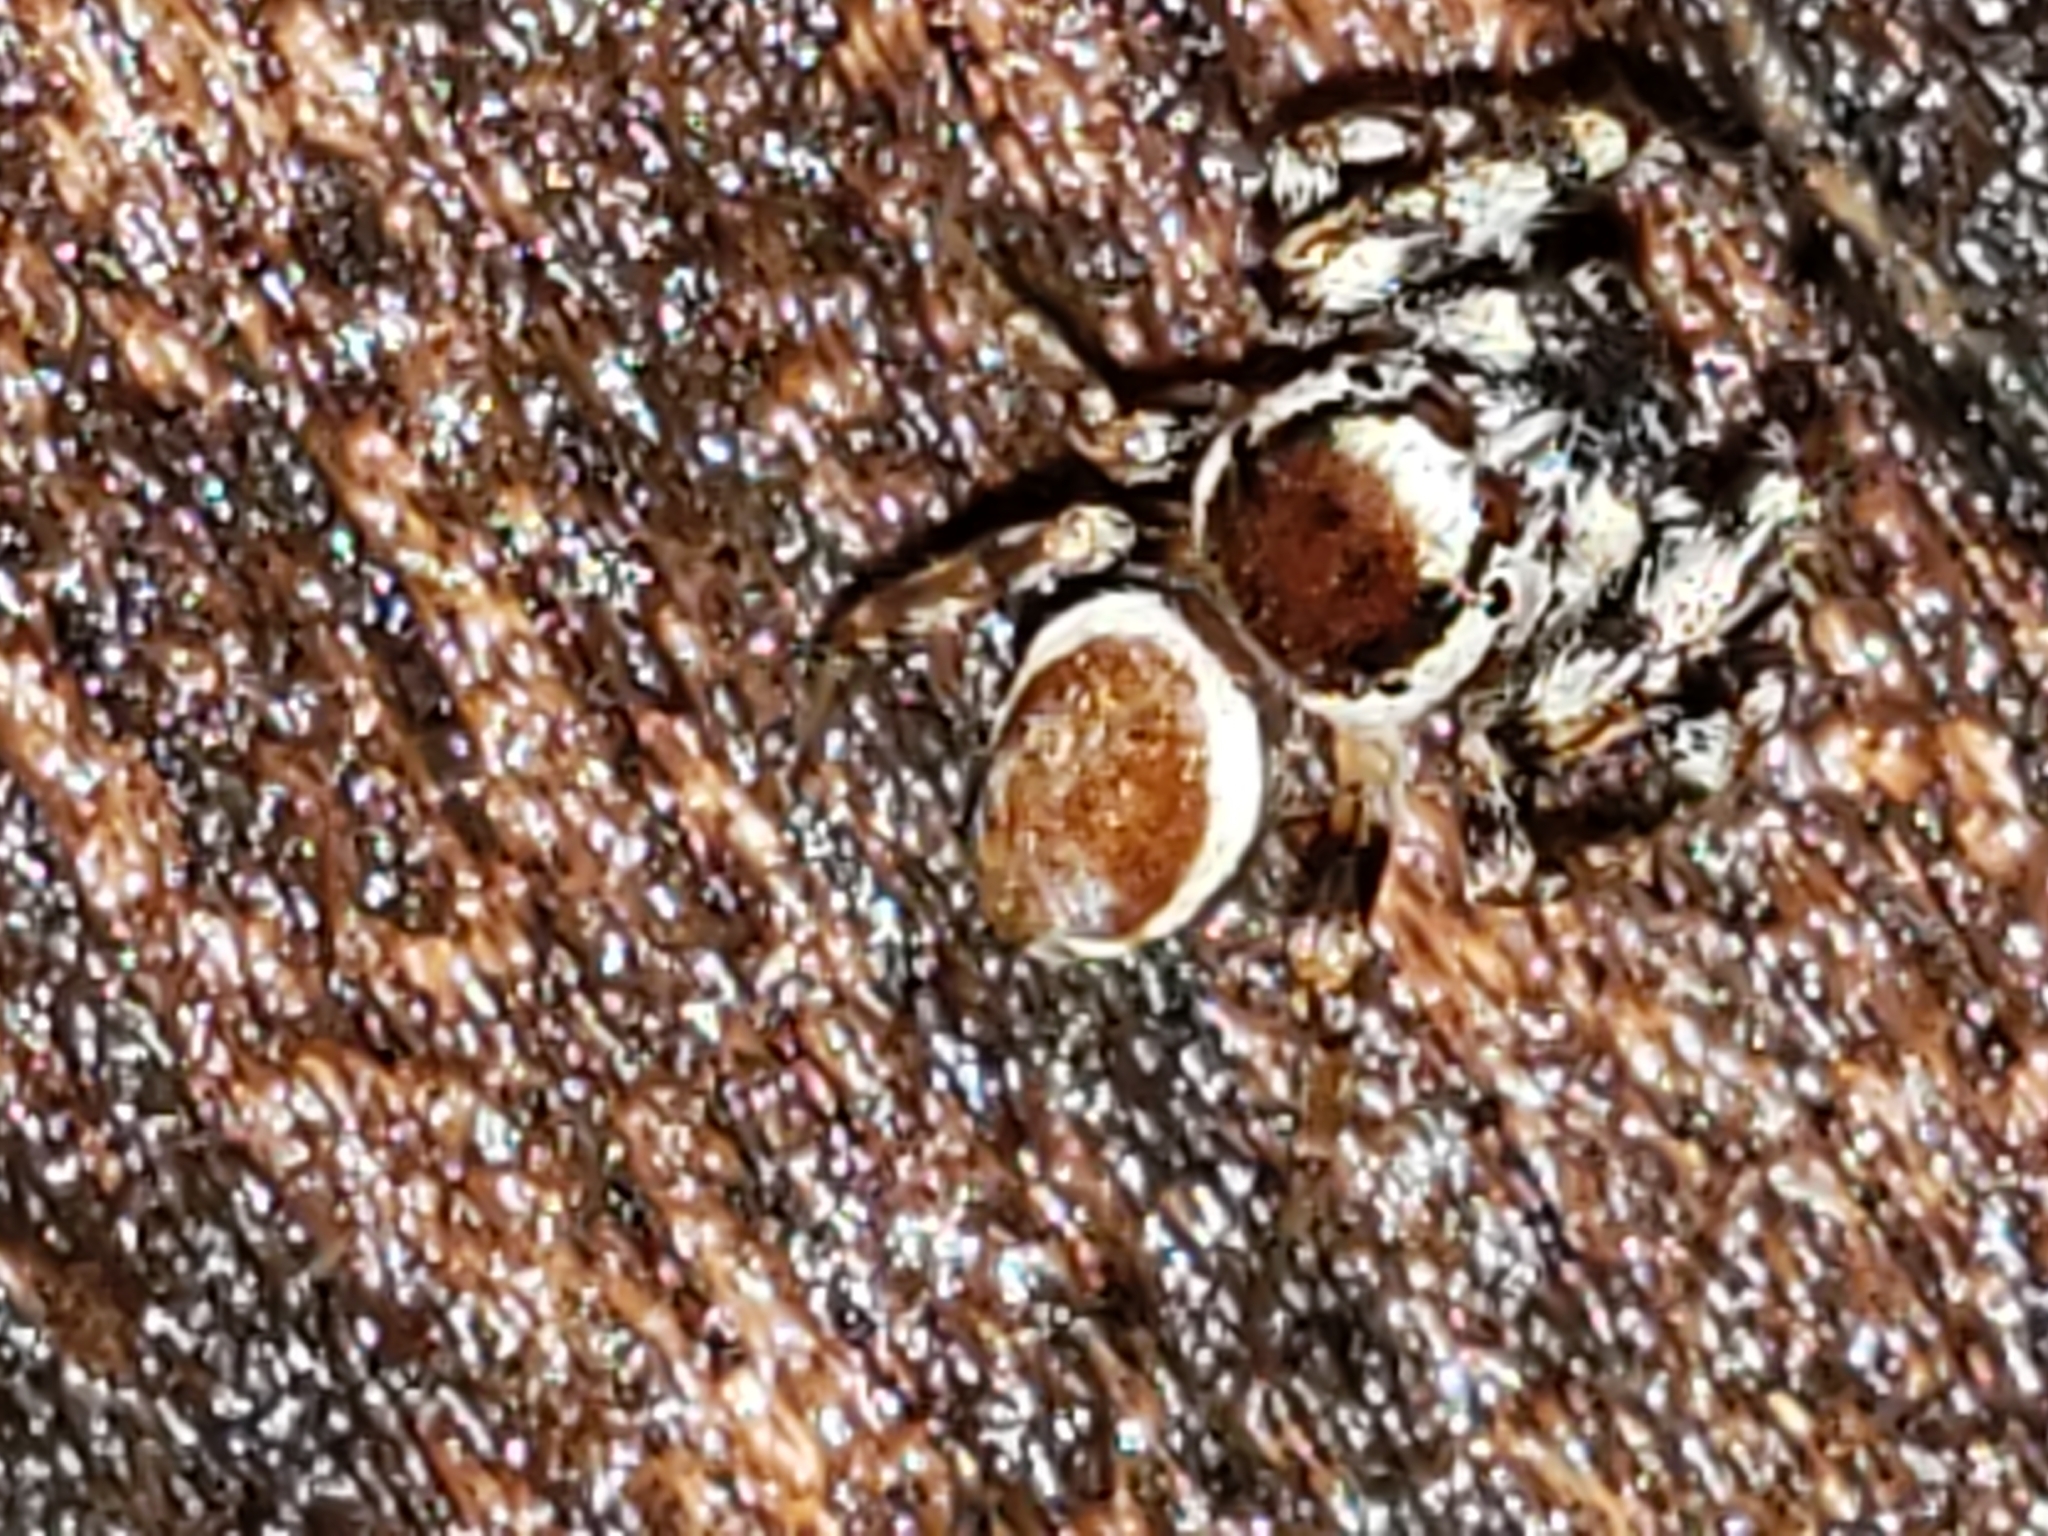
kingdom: Animalia
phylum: Arthropoda
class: Arachnida
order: Araneae
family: Salticidae
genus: Pelegrina
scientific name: Pelegrina proterva
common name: Common white-cheeked jumping spider
